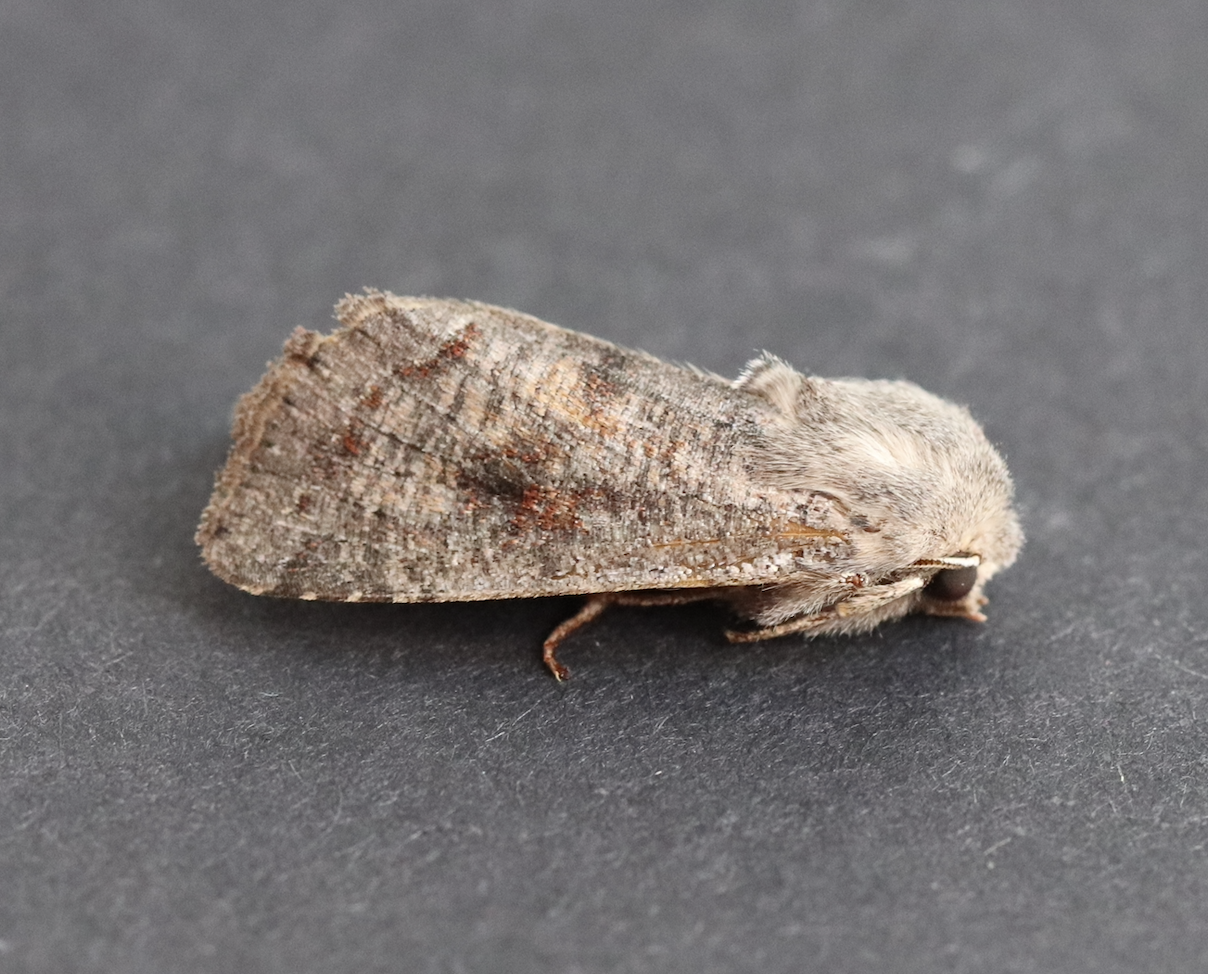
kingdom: Animalia
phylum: Arthropoda
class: Insecta
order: Lepidoptera
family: Noctuidae
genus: Orthosia
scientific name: Orthosia incerta
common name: Clouded drab
